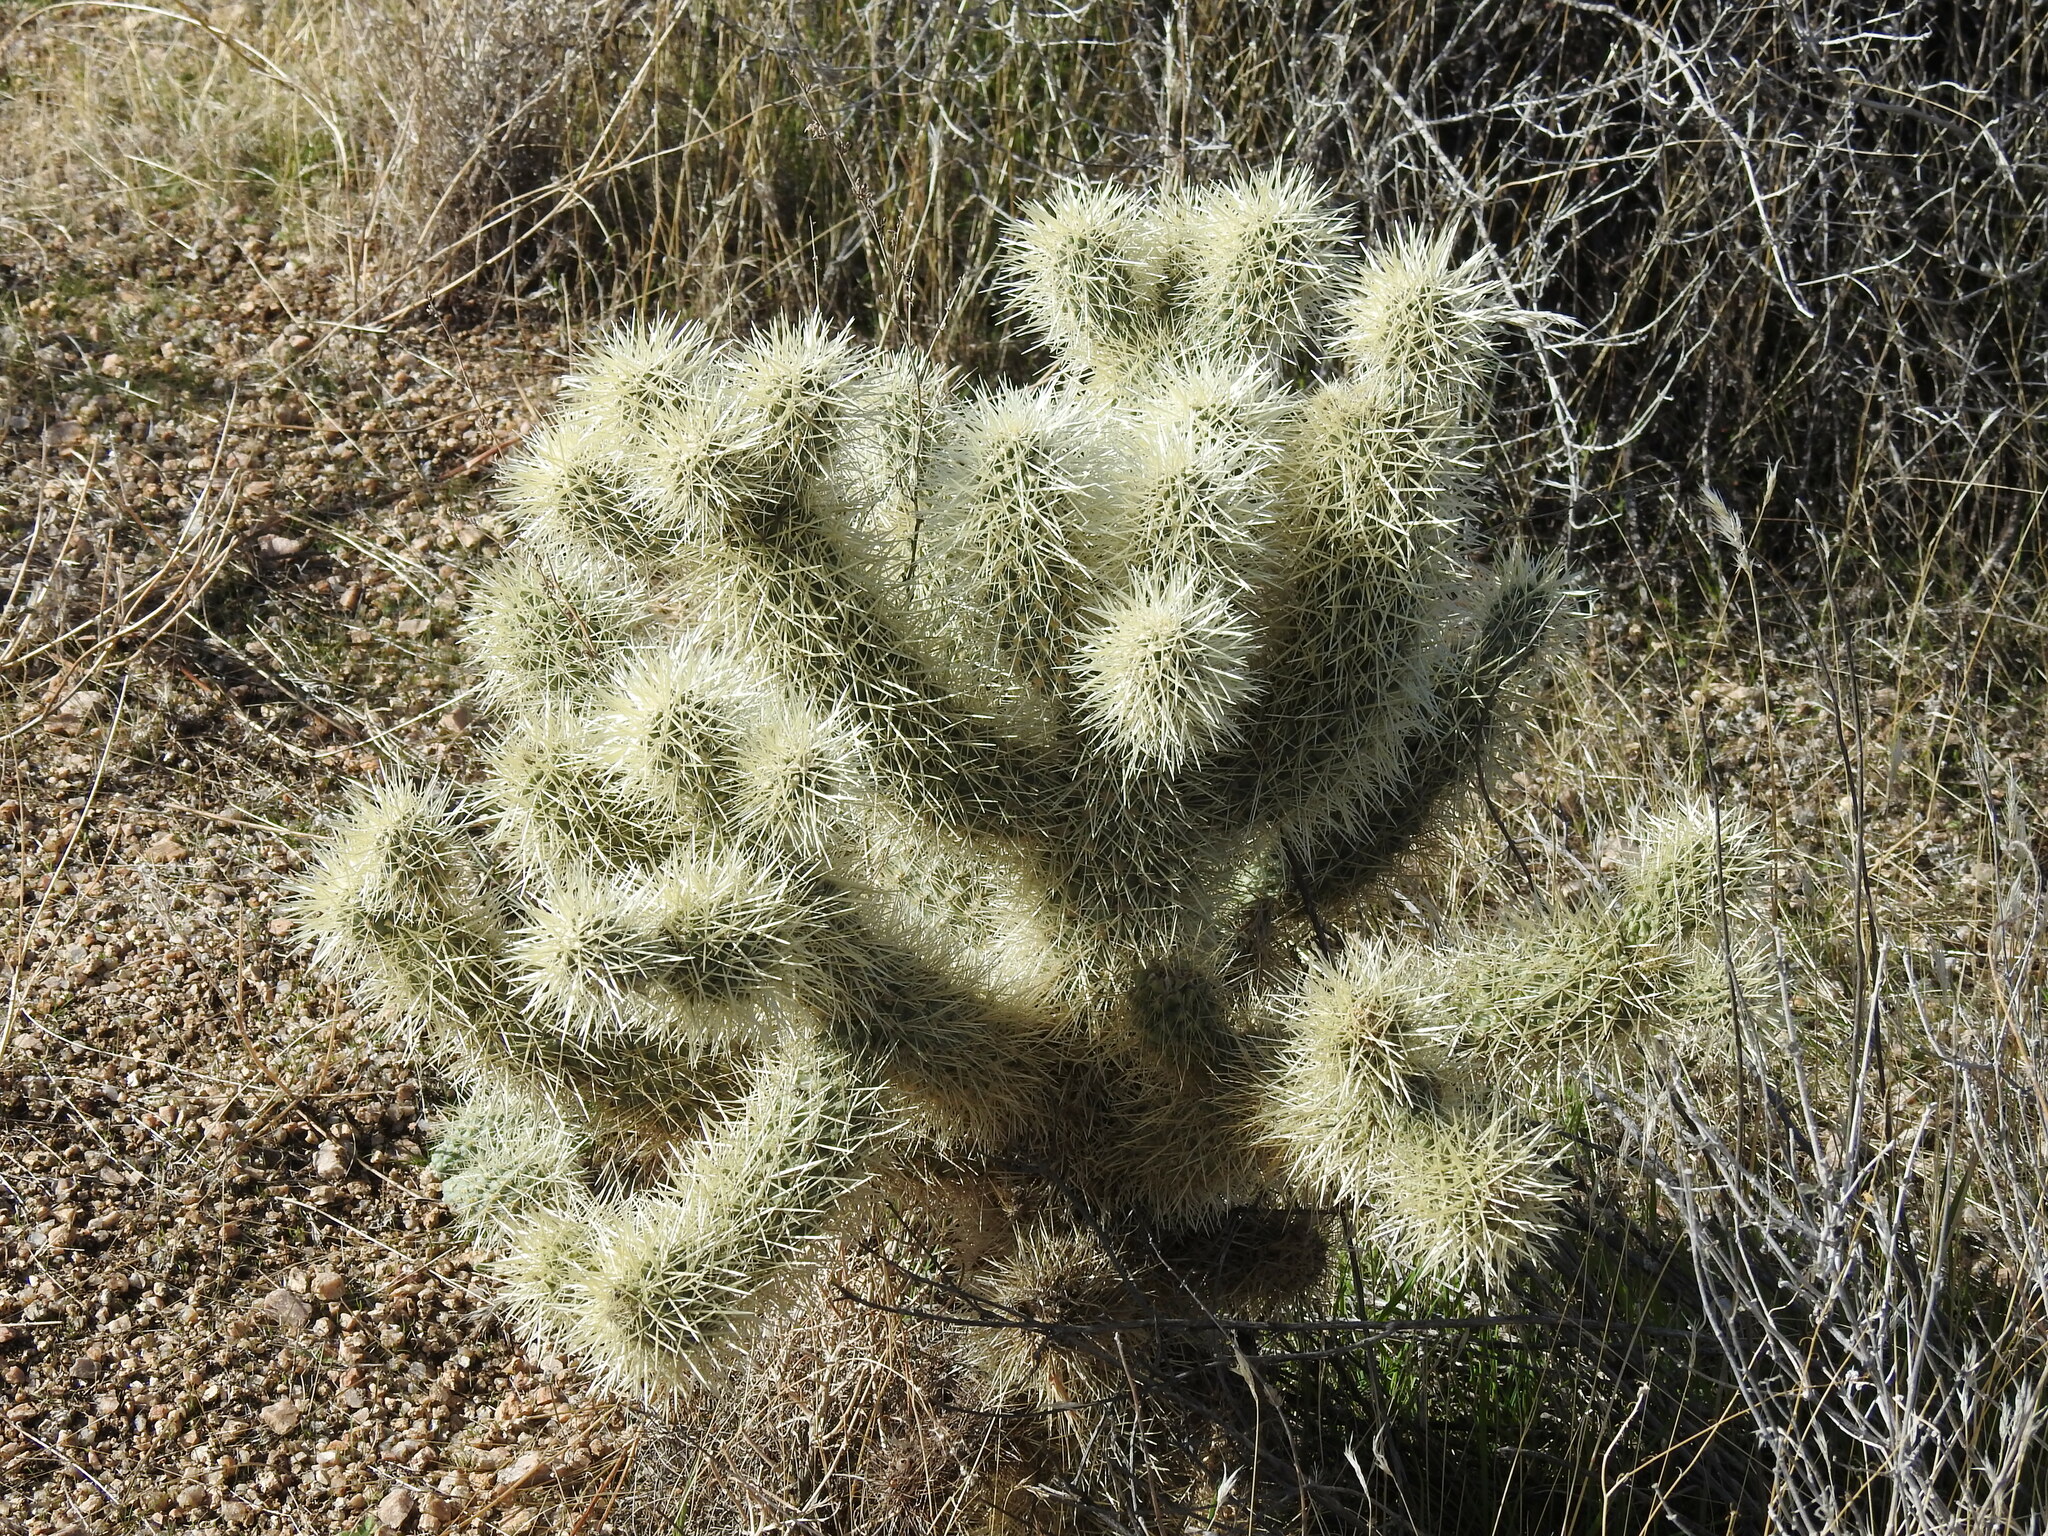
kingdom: Plantae
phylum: Tracheophyta
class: Magnoliopsida
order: Caryophyllales
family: Cactaceae
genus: Cylindropuntia
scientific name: Cylindropuntia fosbergii
